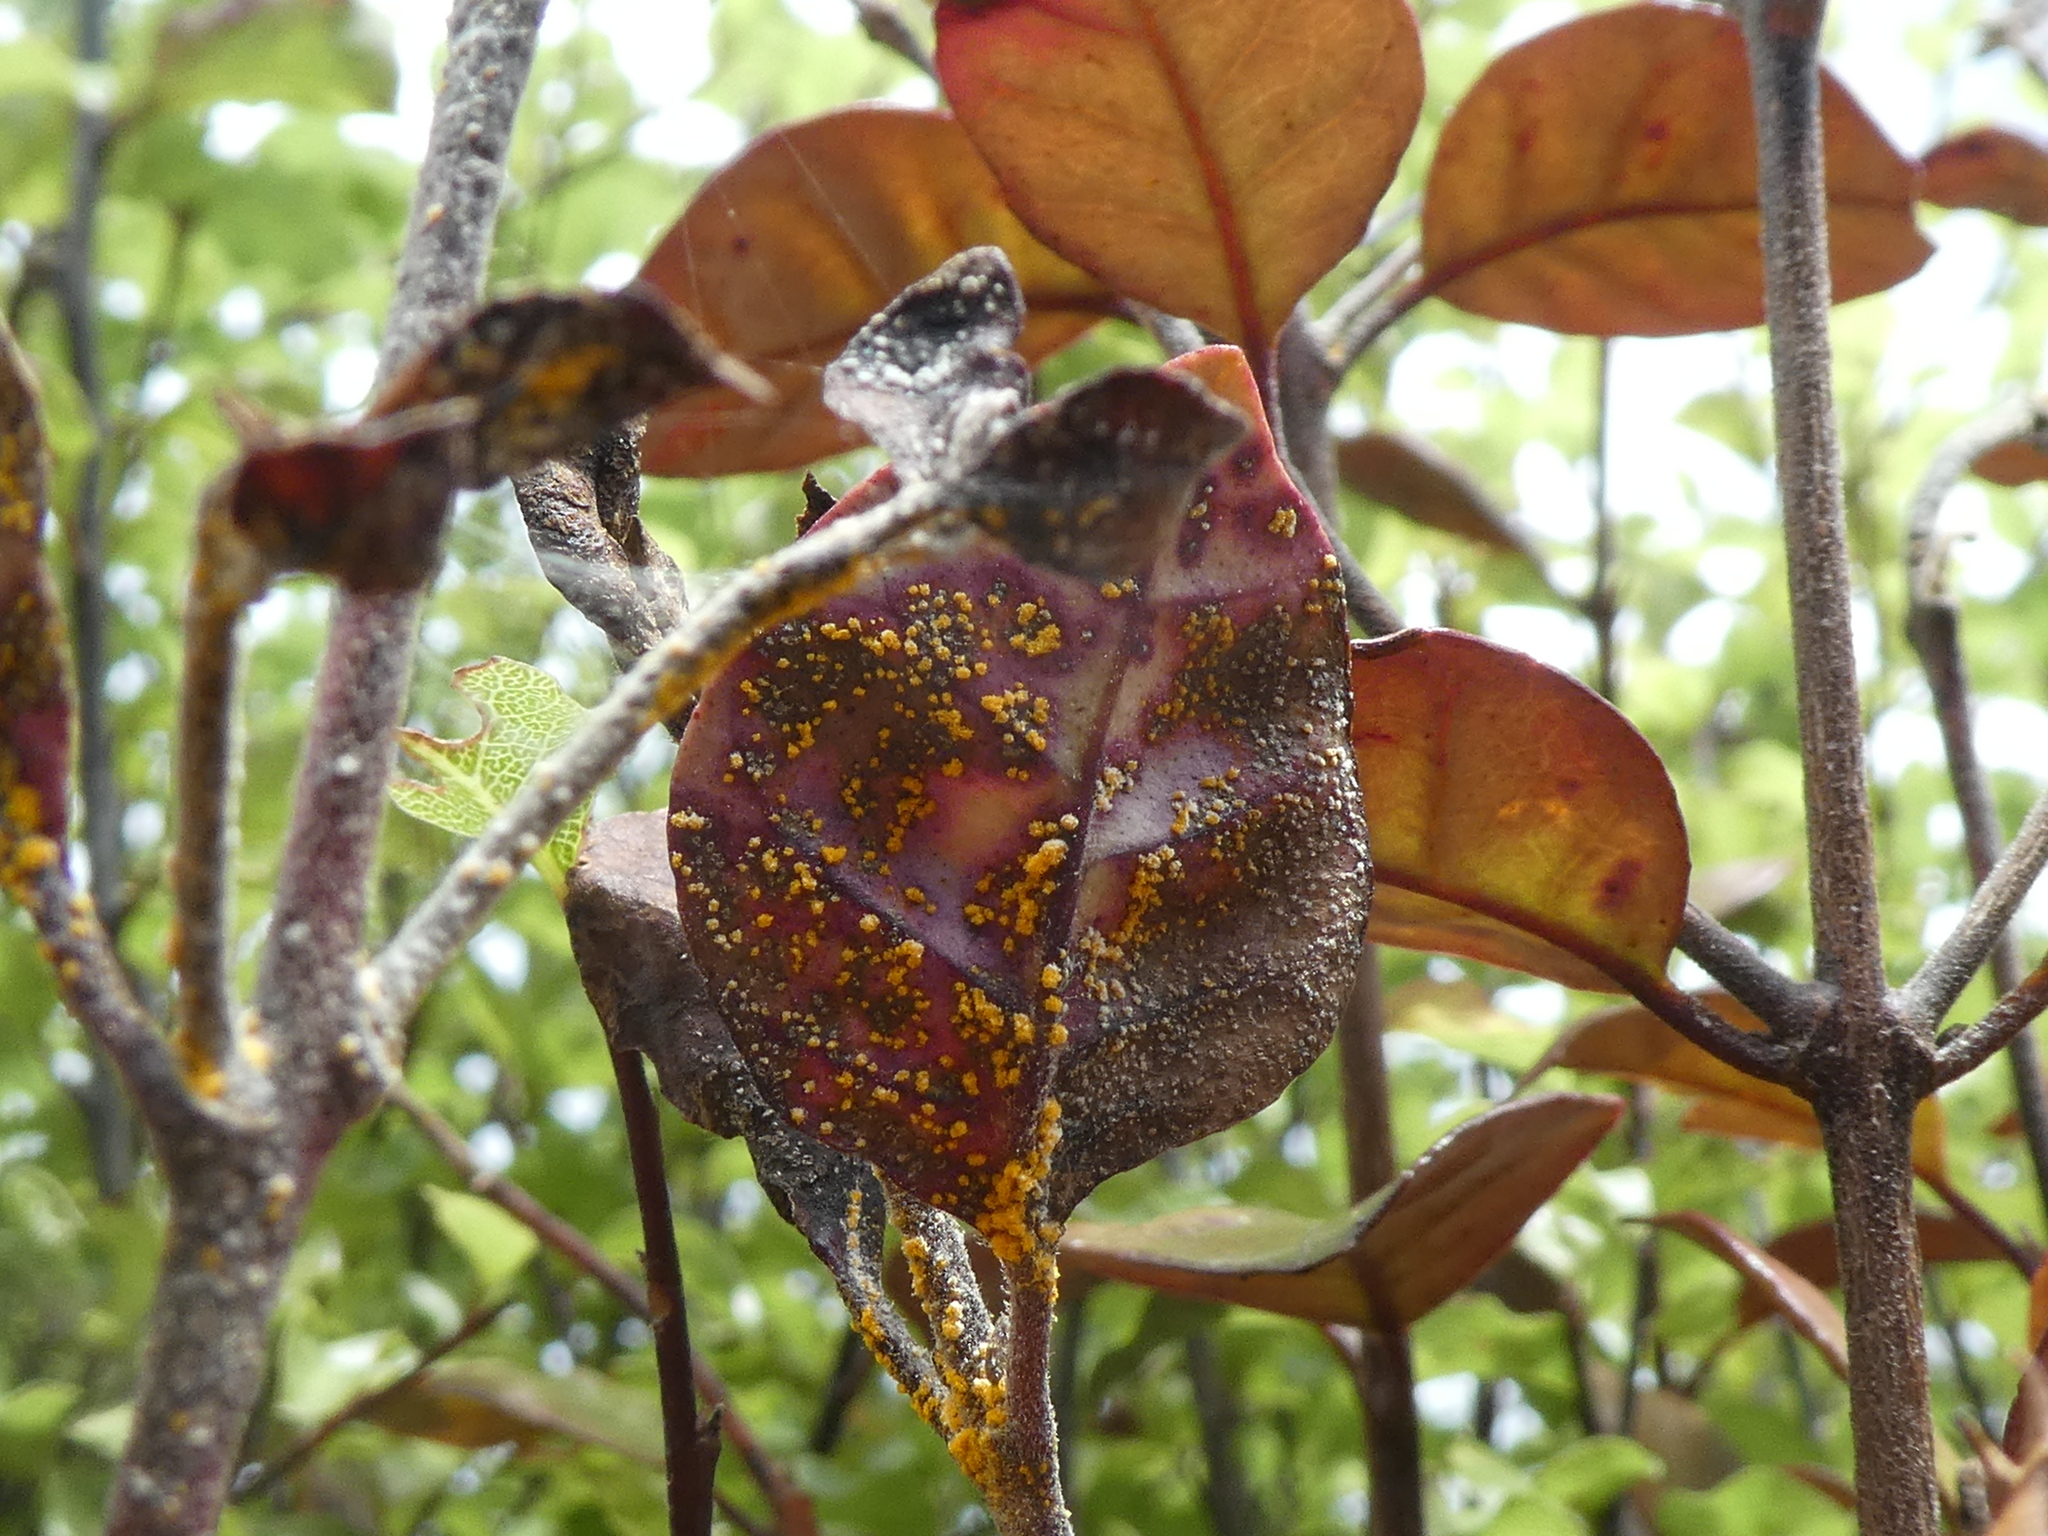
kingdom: Fungi
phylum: Basidiomycota
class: Pucciniomycetes
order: Pucciniales
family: Sphaerophragmiaceae
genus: Austropuccinia
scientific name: Austropuccinia psidii
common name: Myrtle rust
